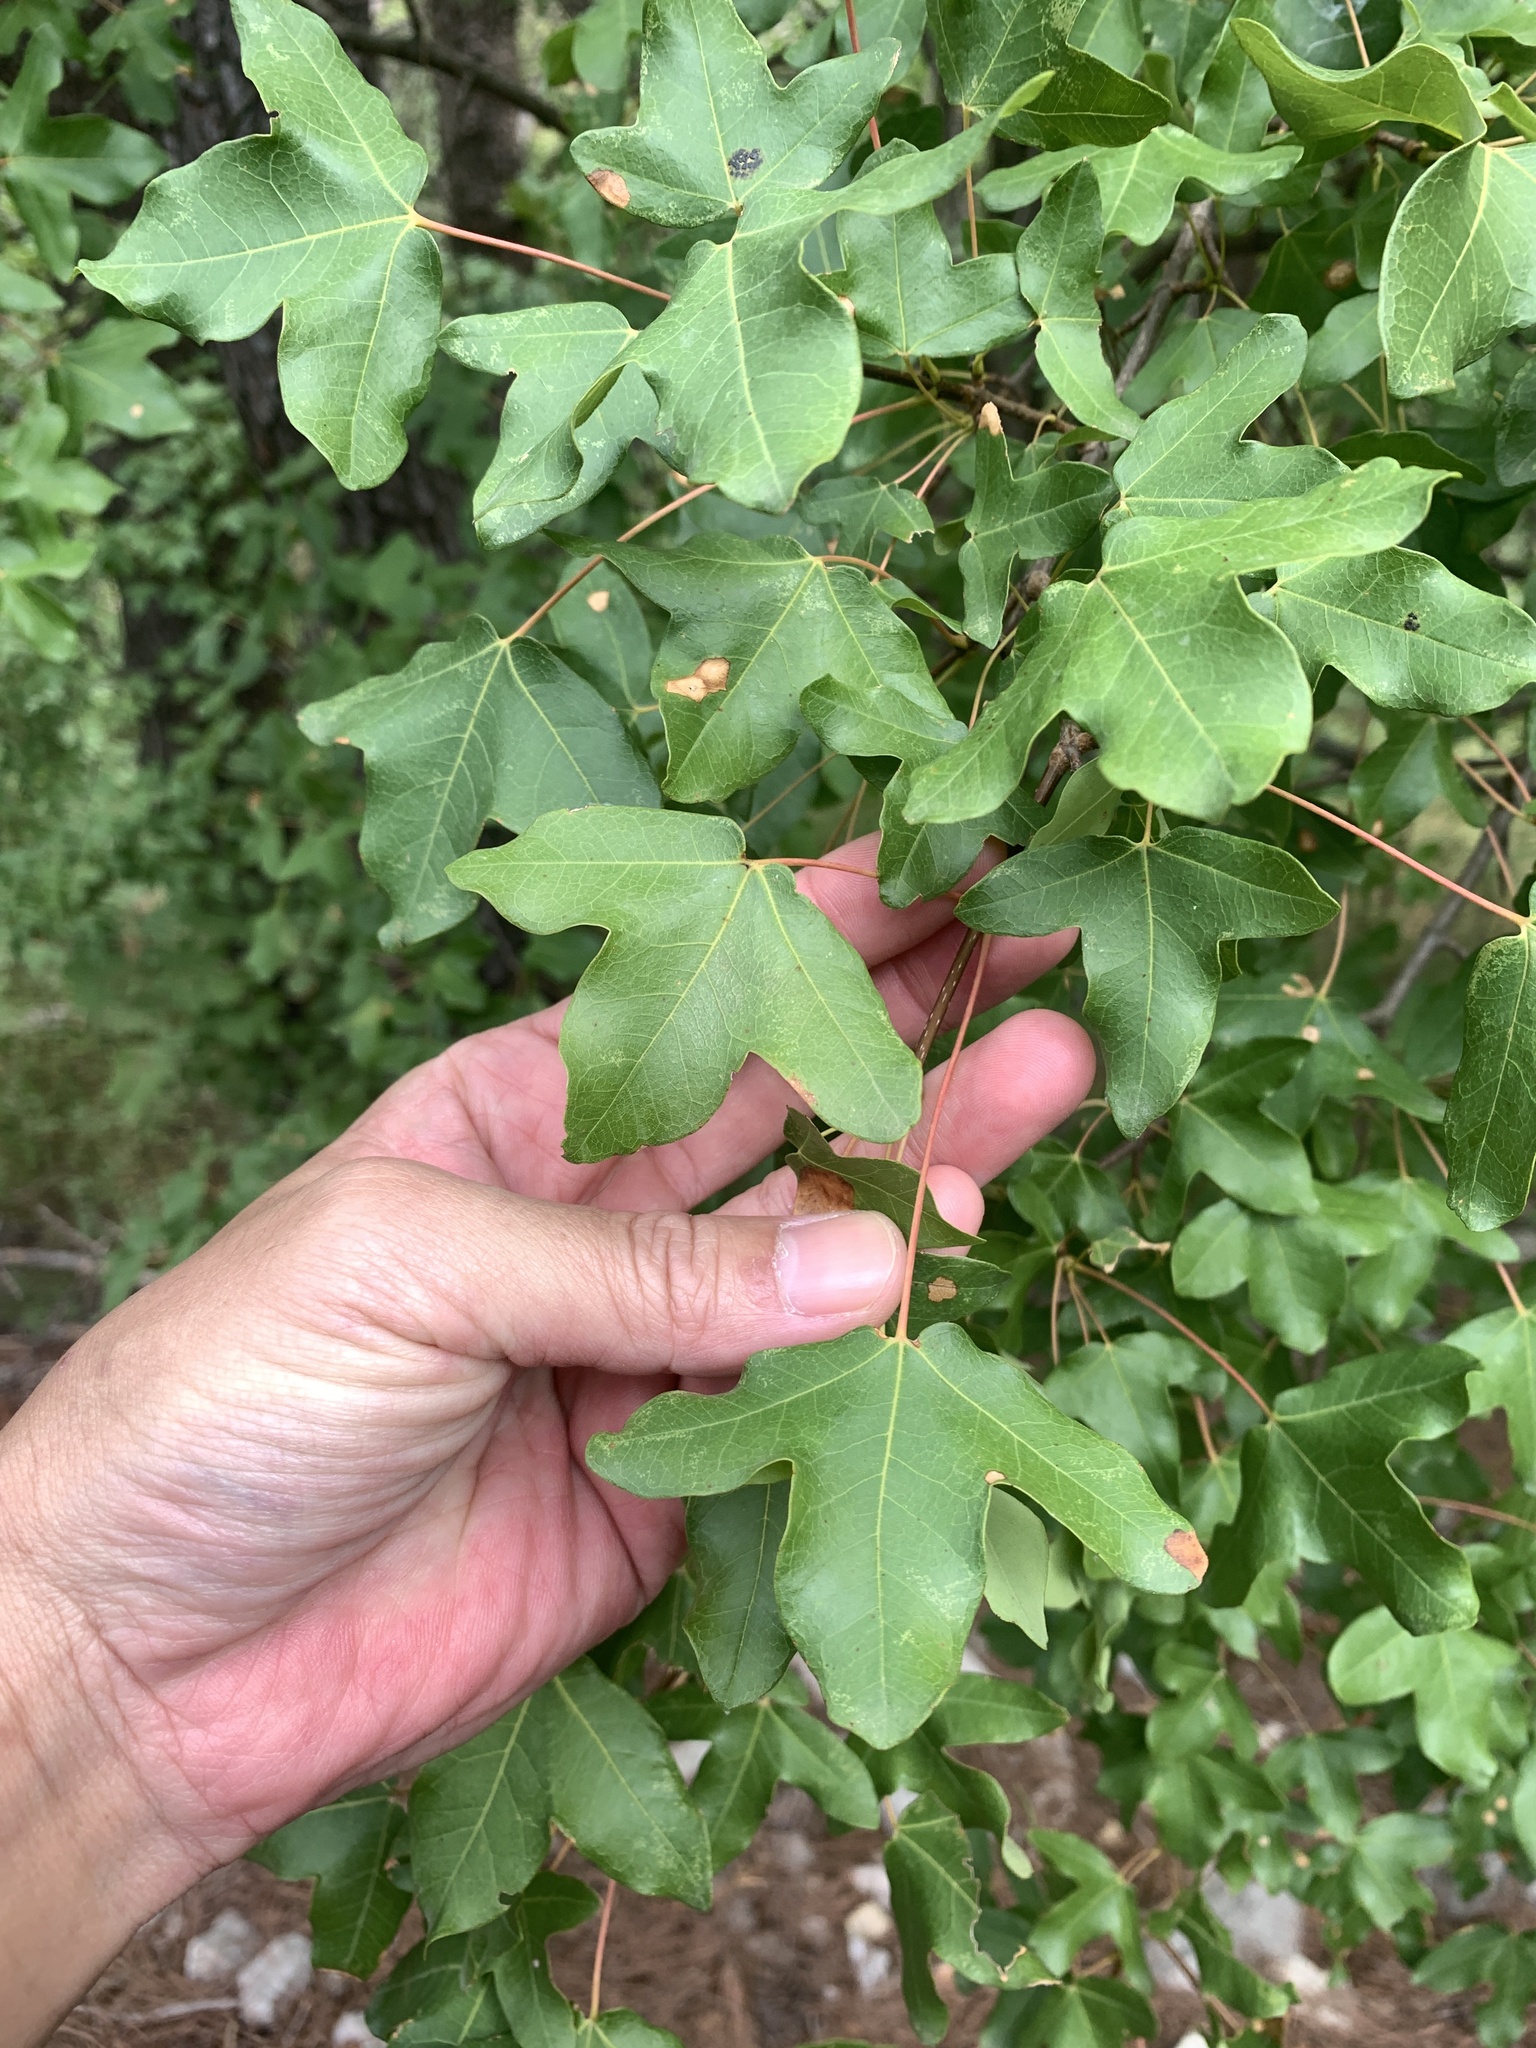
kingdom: Plantae
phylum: Tracheophyta
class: Magnoliopsida
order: Sapindales
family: Sapindaceae
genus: Acer
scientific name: Acer monspessulanum
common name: Montpellier maple
